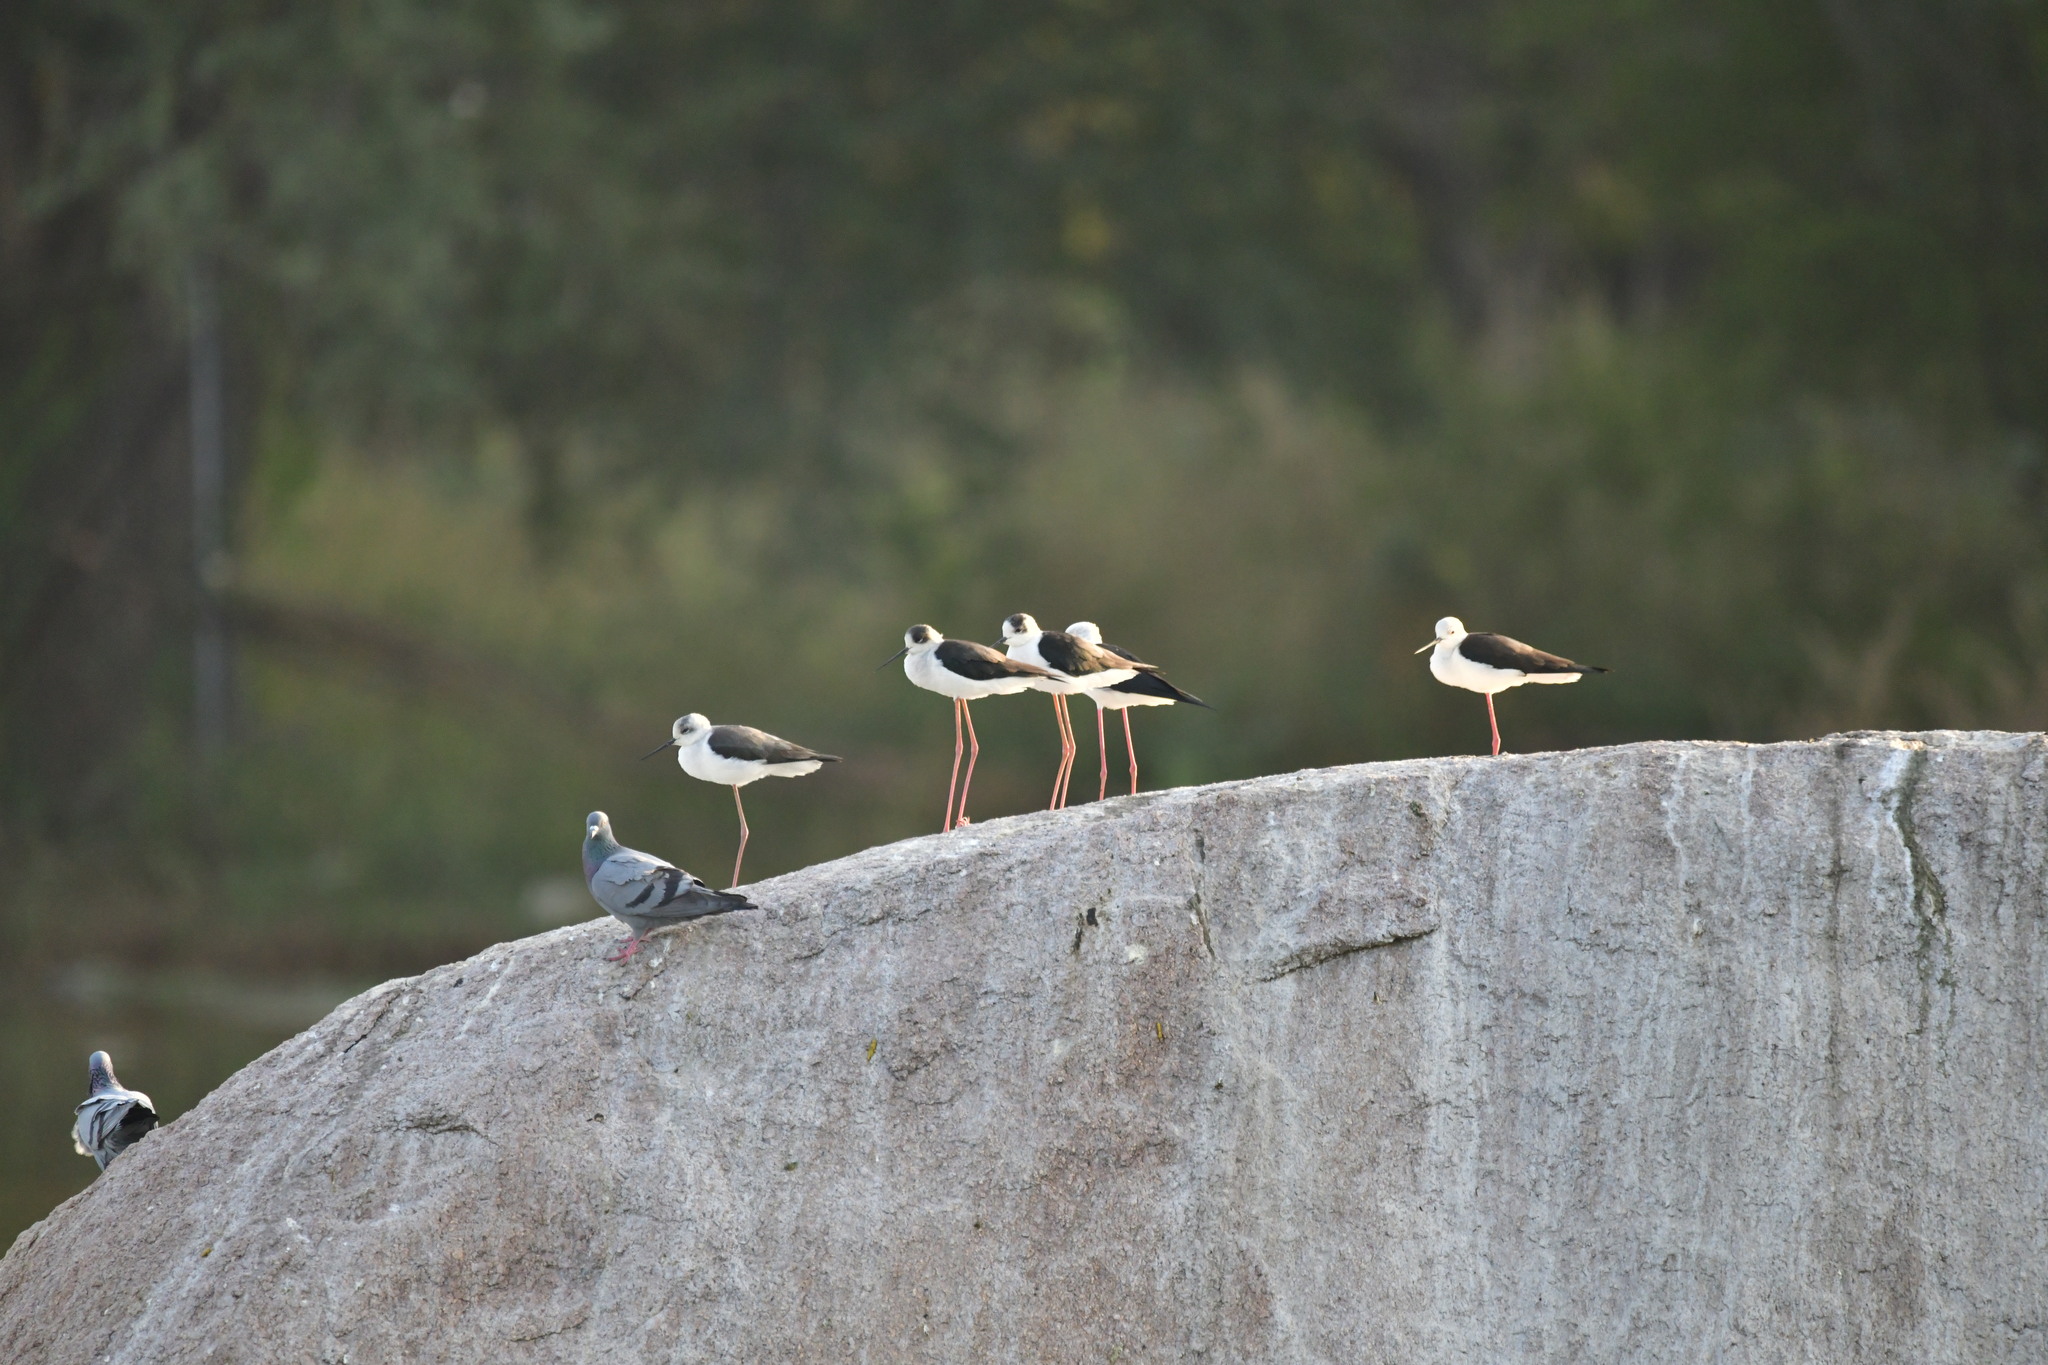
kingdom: Animalia
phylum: Chordata
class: Aves
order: Charadriiformes
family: Recurvirostridae
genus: Himantopus
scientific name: Himantopus himantopus
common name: Black-winged stilt
